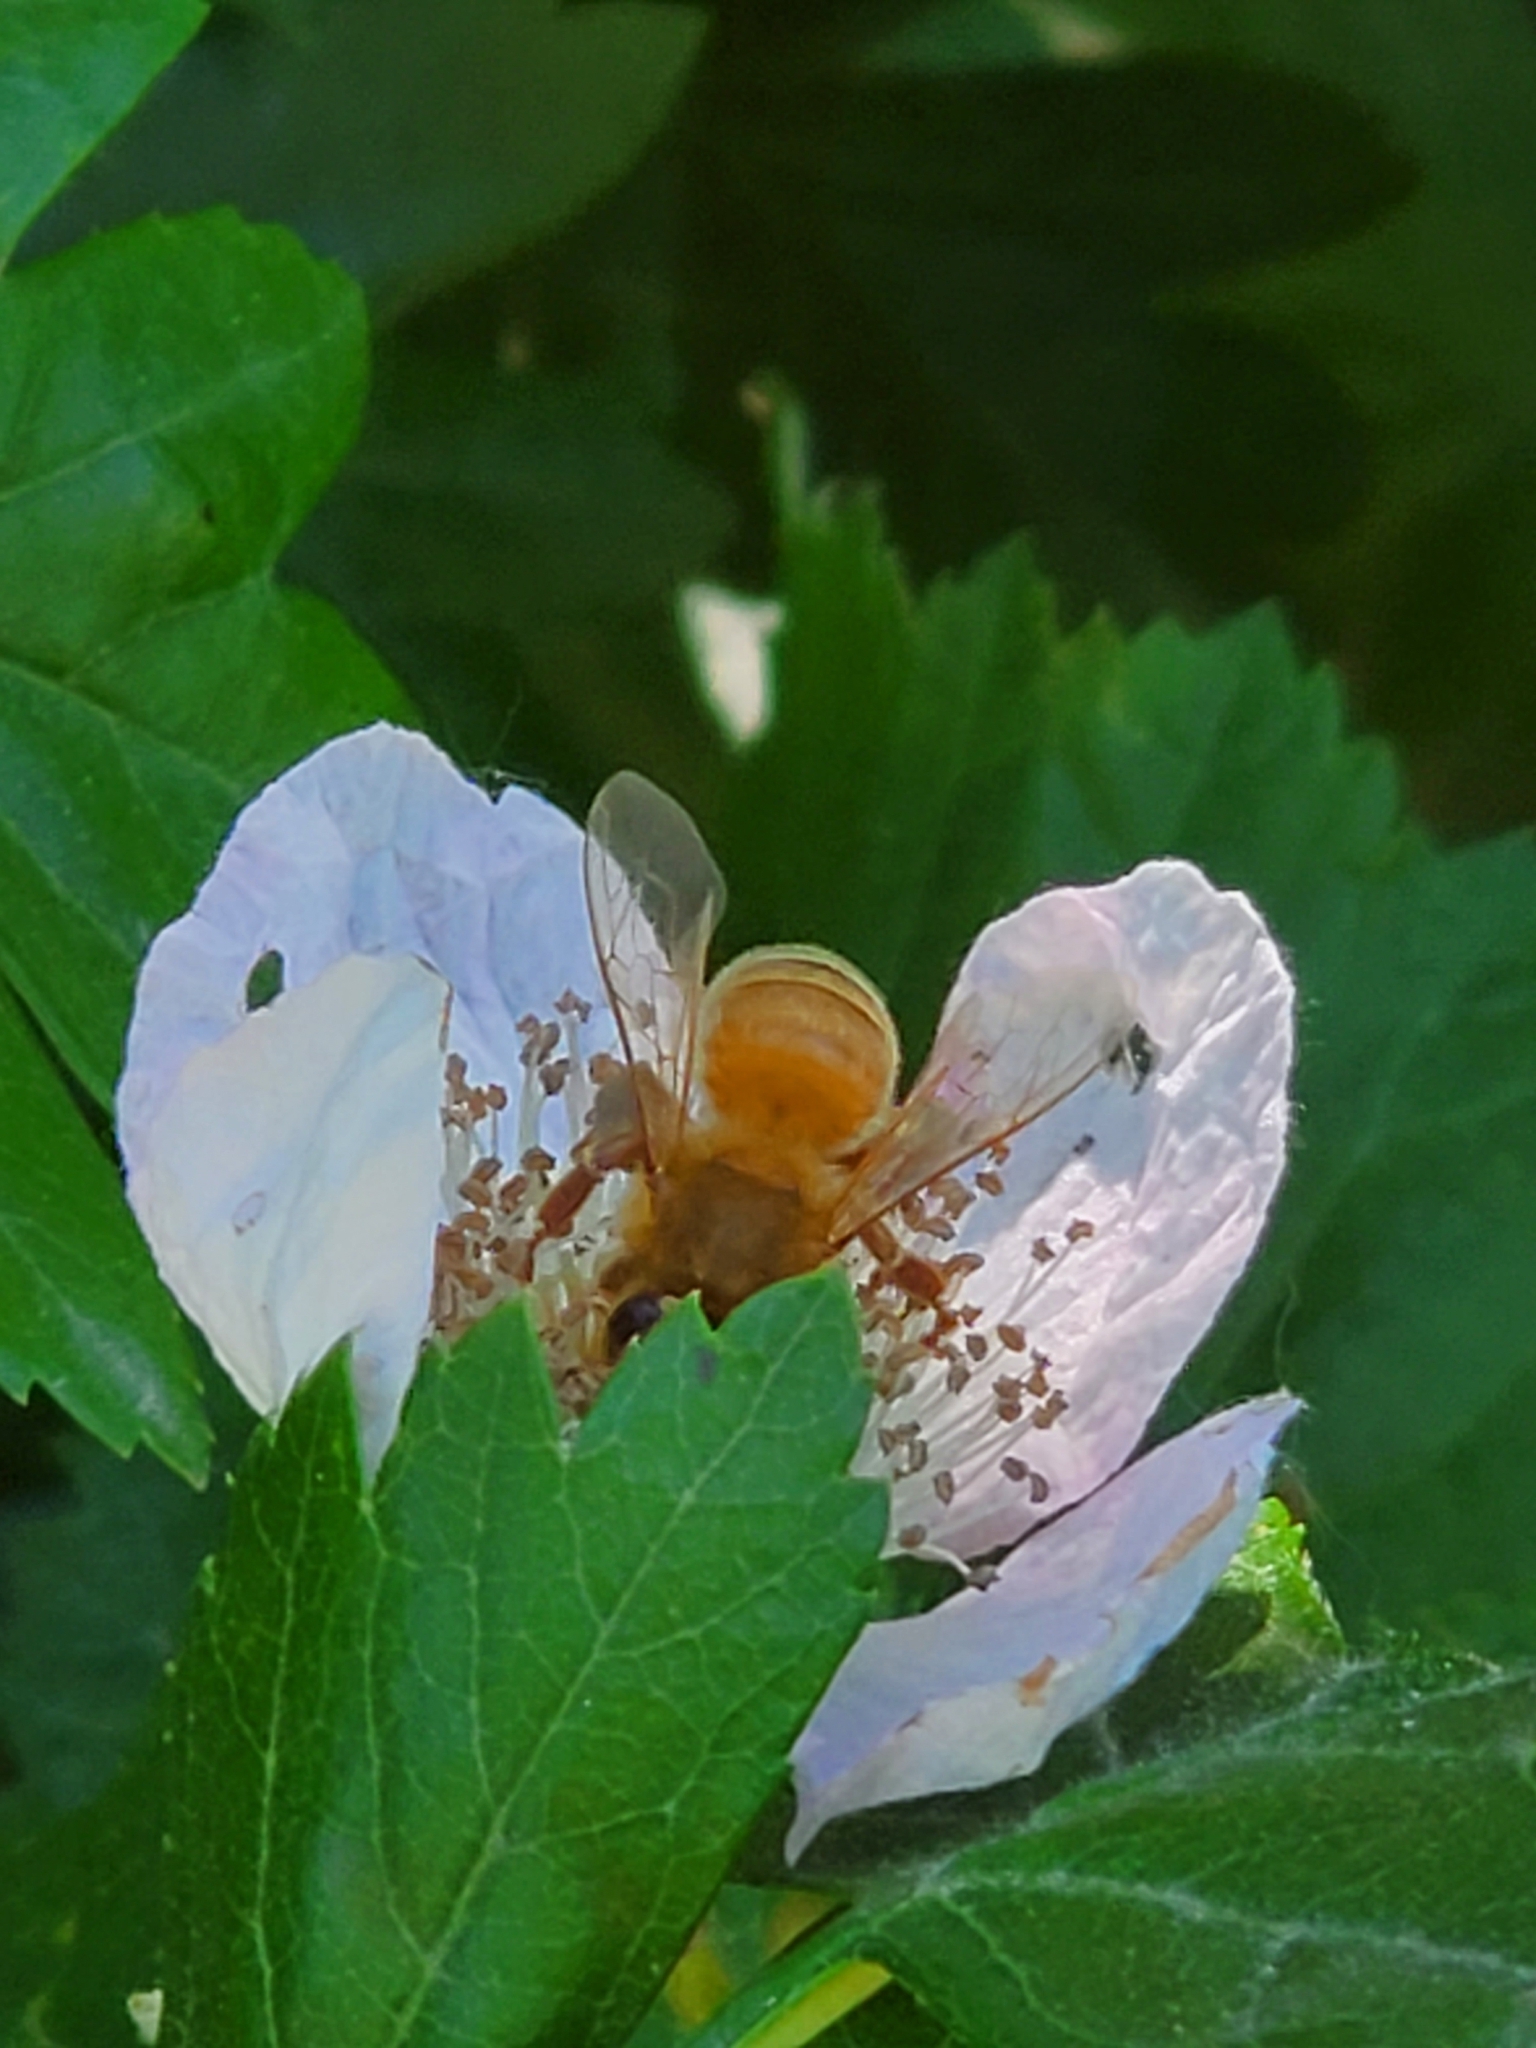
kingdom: Animalia
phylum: Arthropoda
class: Insecta
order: Hymenoptera
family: Apidae
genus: Apis
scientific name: Apis mellifera
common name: Honey bee
